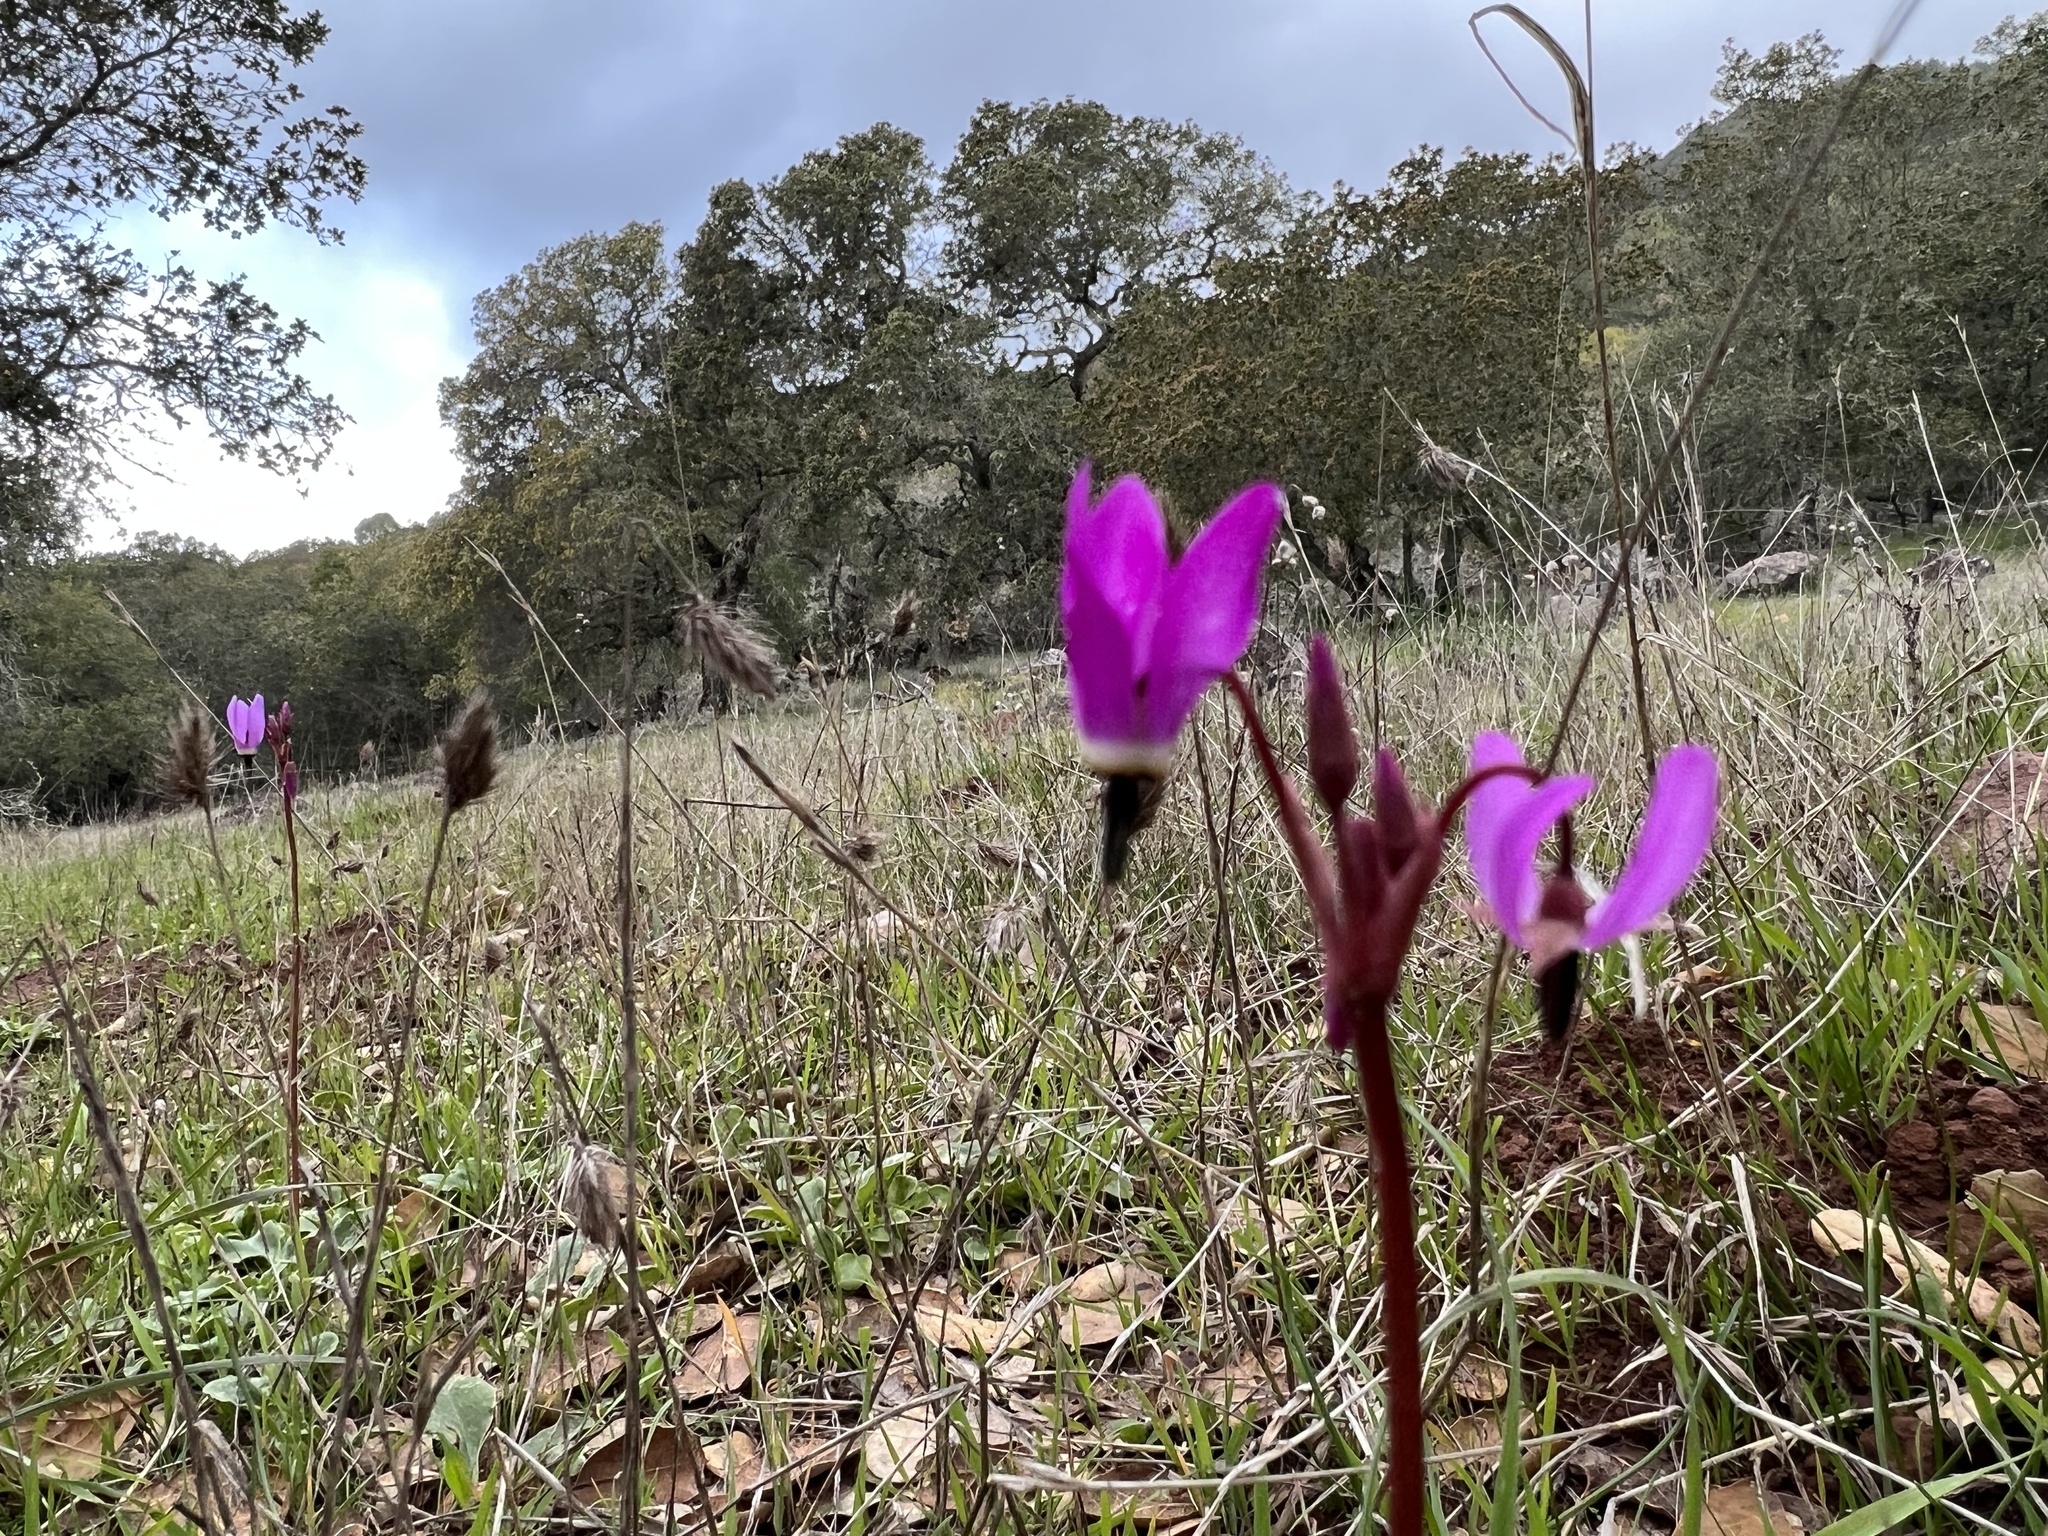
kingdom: Plantae
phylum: Tracheophyta
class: Magnoliopsida
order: Ericales
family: Primulaceae
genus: Dodecatheon
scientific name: Dodecatheon hendersonii
